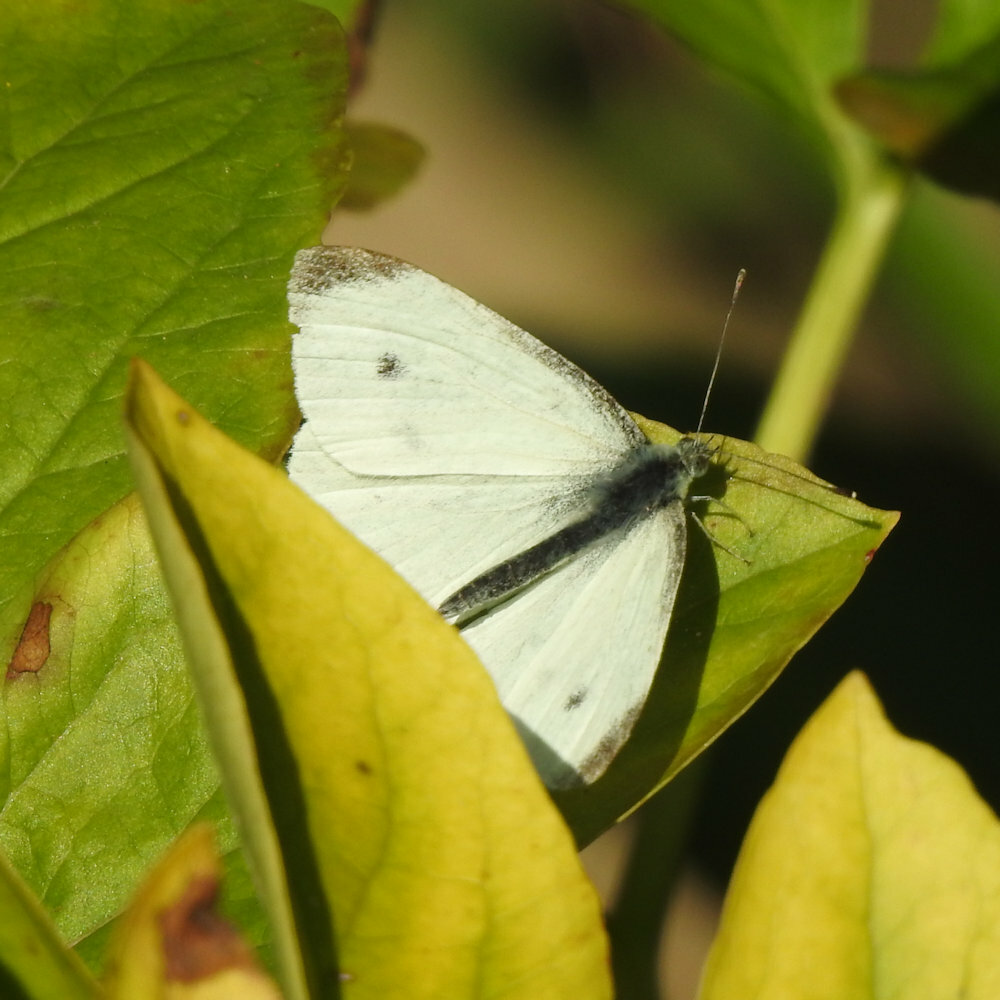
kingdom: Animalia
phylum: Arthropoda
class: Insecta
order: Lepidoptera
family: Pieridae
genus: Pieris
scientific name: Pieris rapae
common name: Small white
